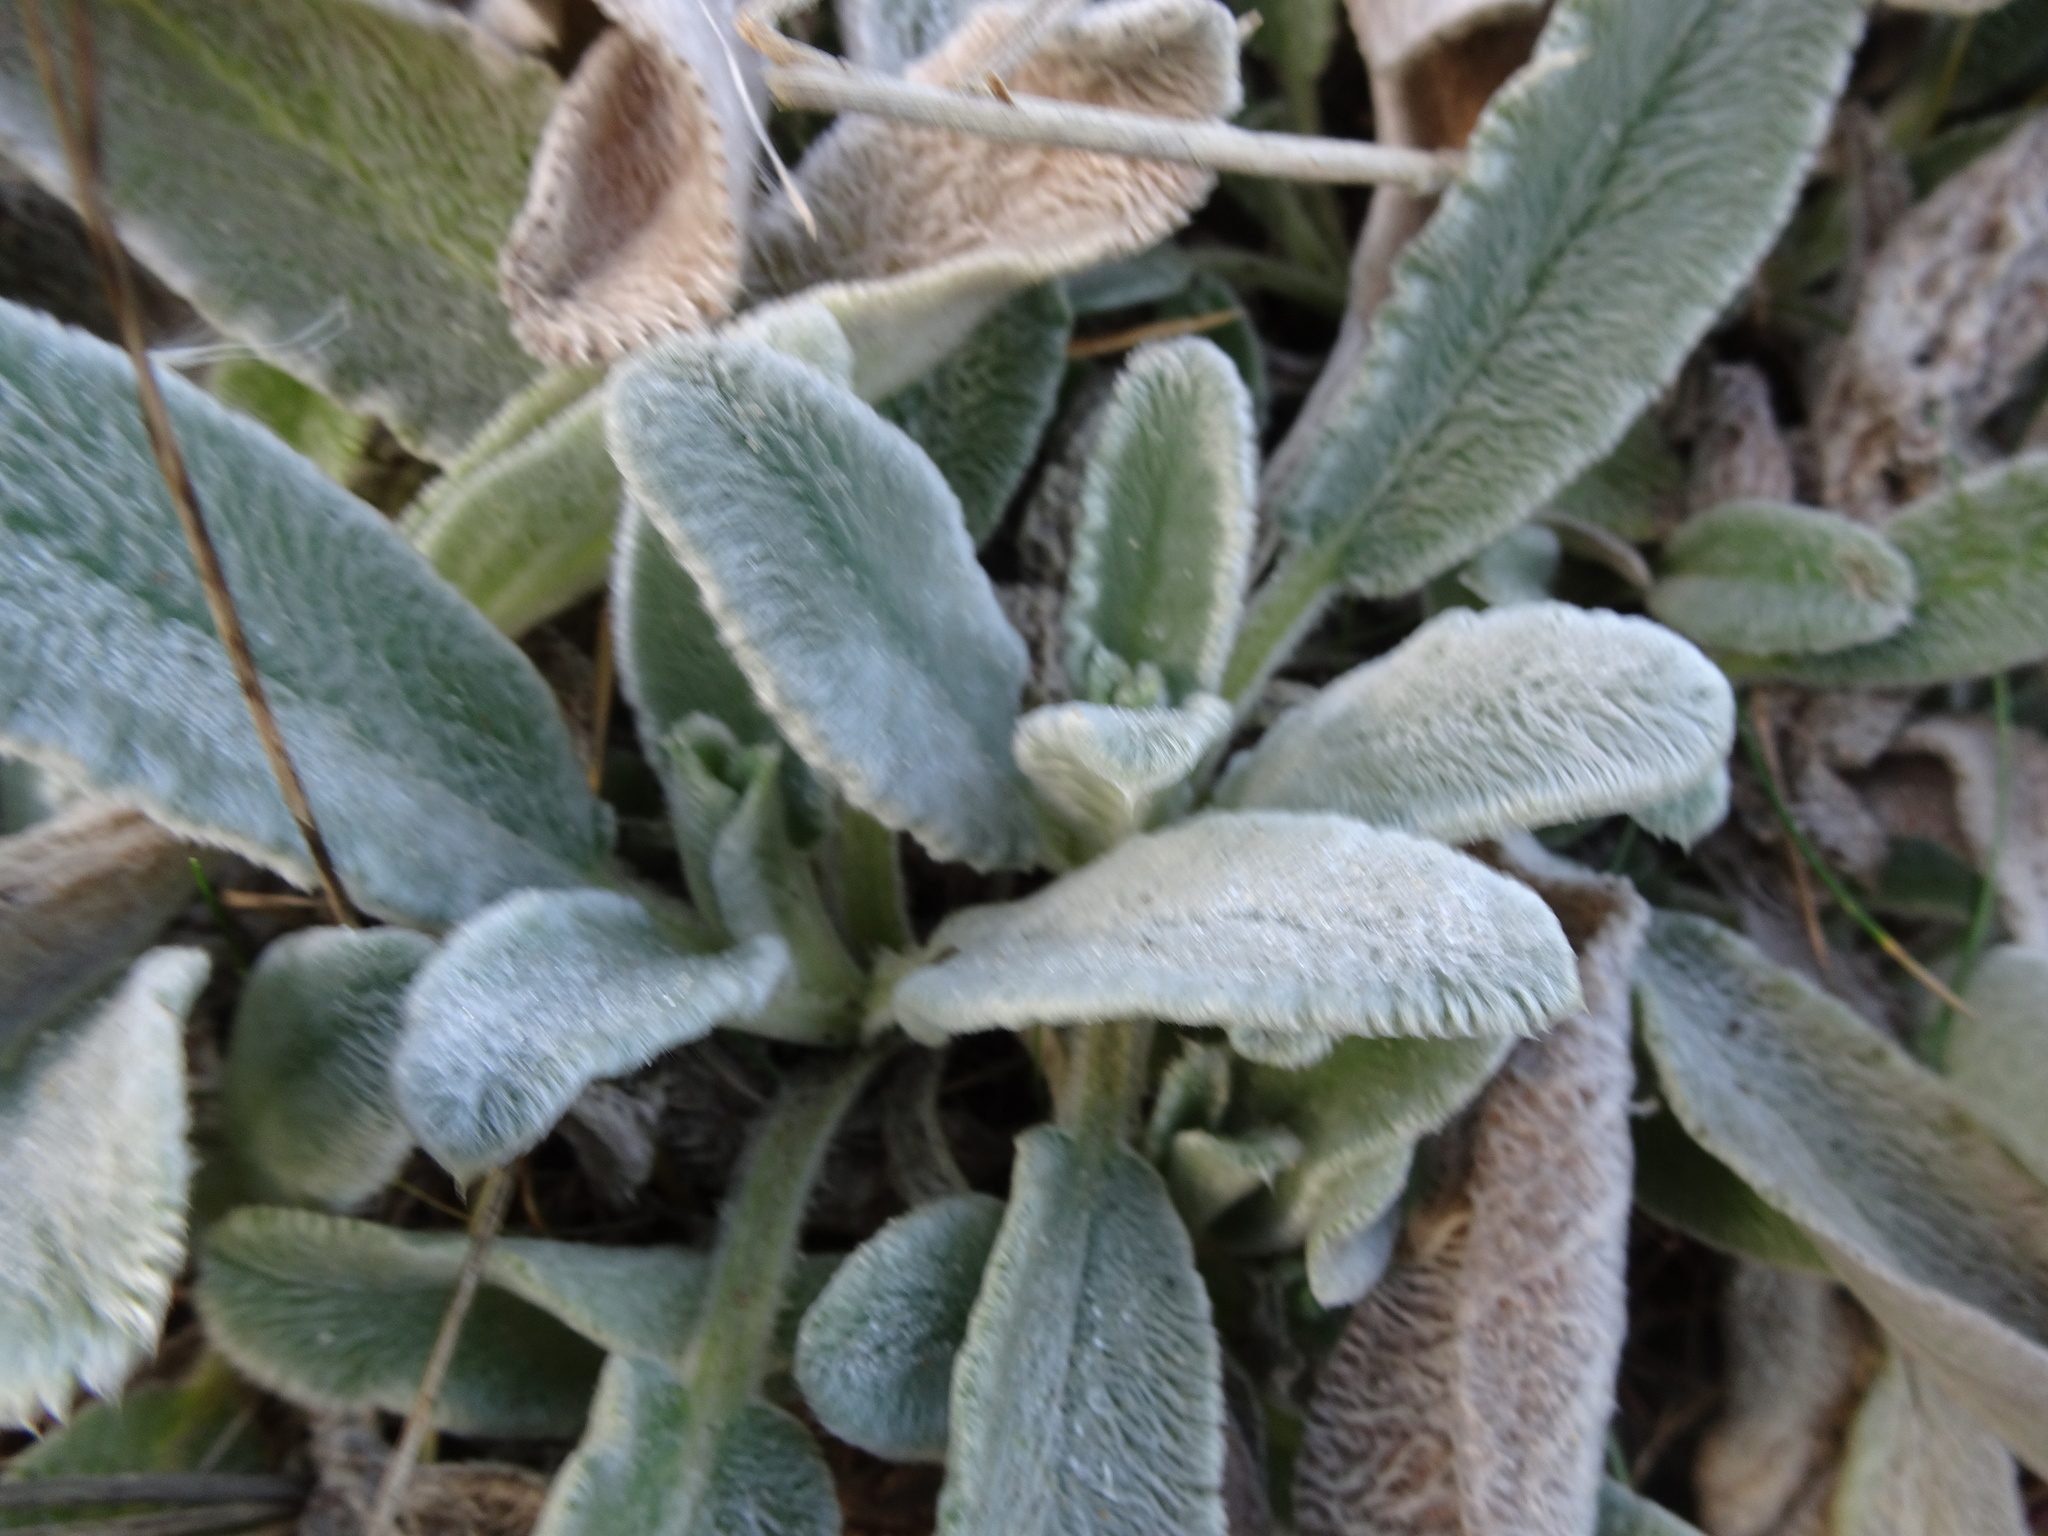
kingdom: Plantae
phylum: Tracheophyta
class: Magnoliopsida
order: Lamiales
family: Lamiaceae
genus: Stachys
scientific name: Stachys byzantina
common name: Lamb's-ear
